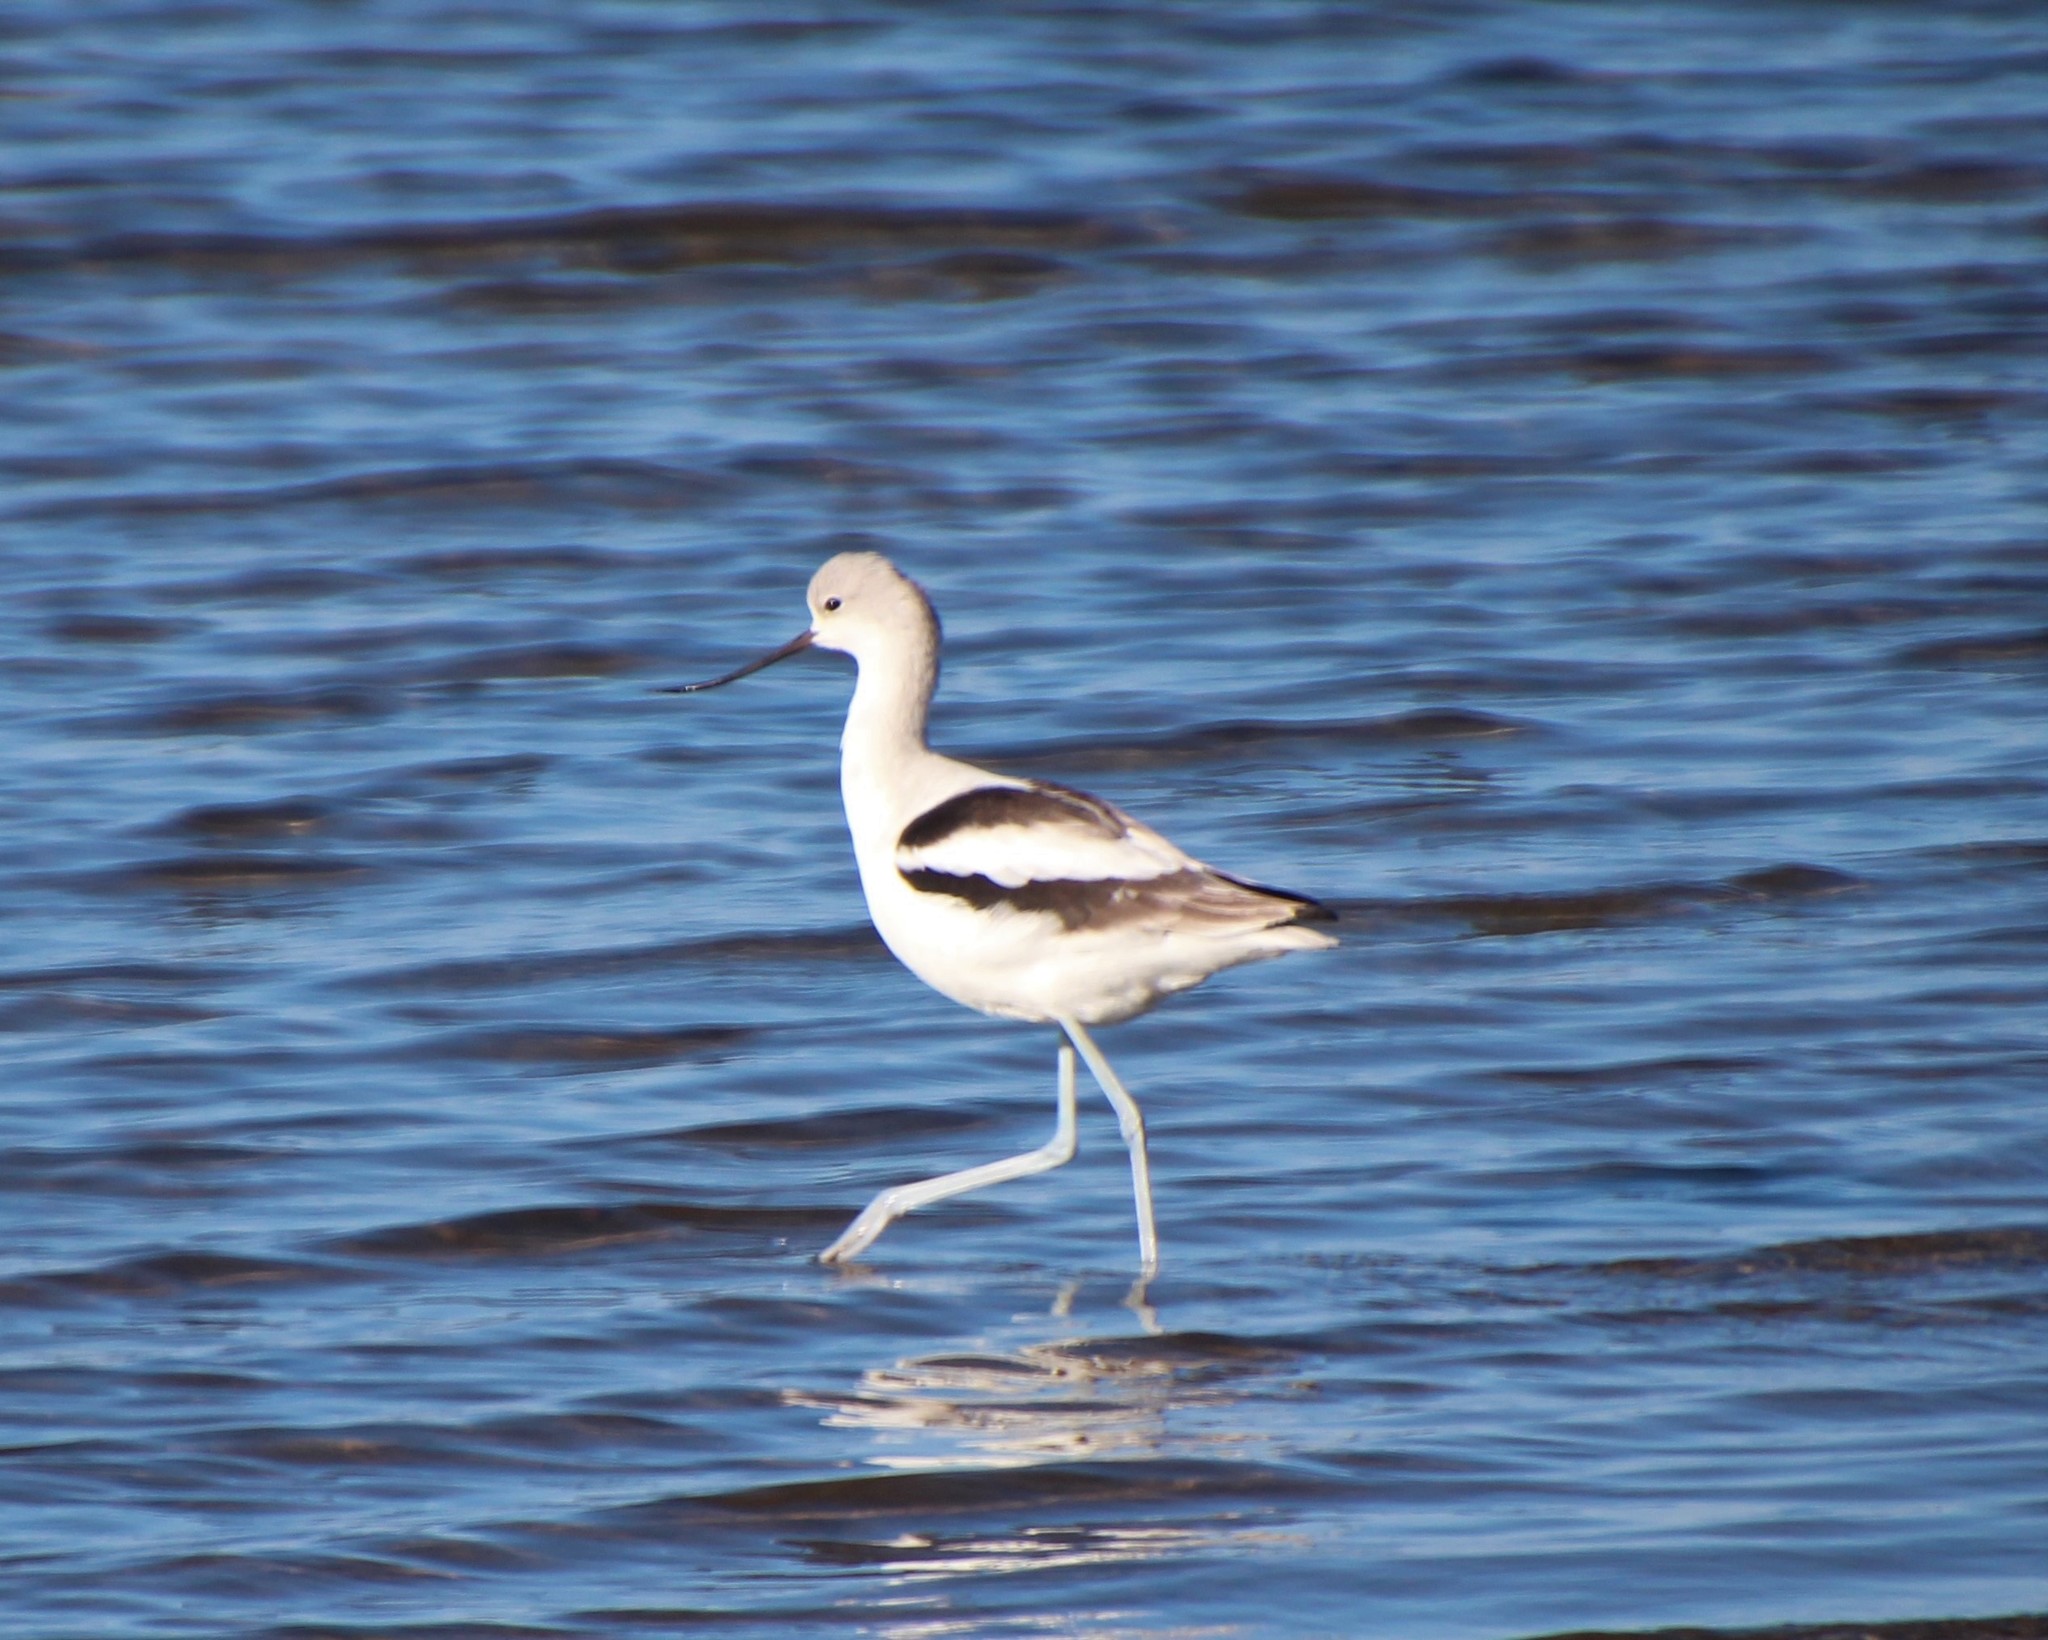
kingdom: Animalia
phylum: Chordata
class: Aves
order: Charadriiformes
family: Recurvirostridae
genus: Recurvirostra
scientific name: Recurvirostra americana
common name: American avocet
